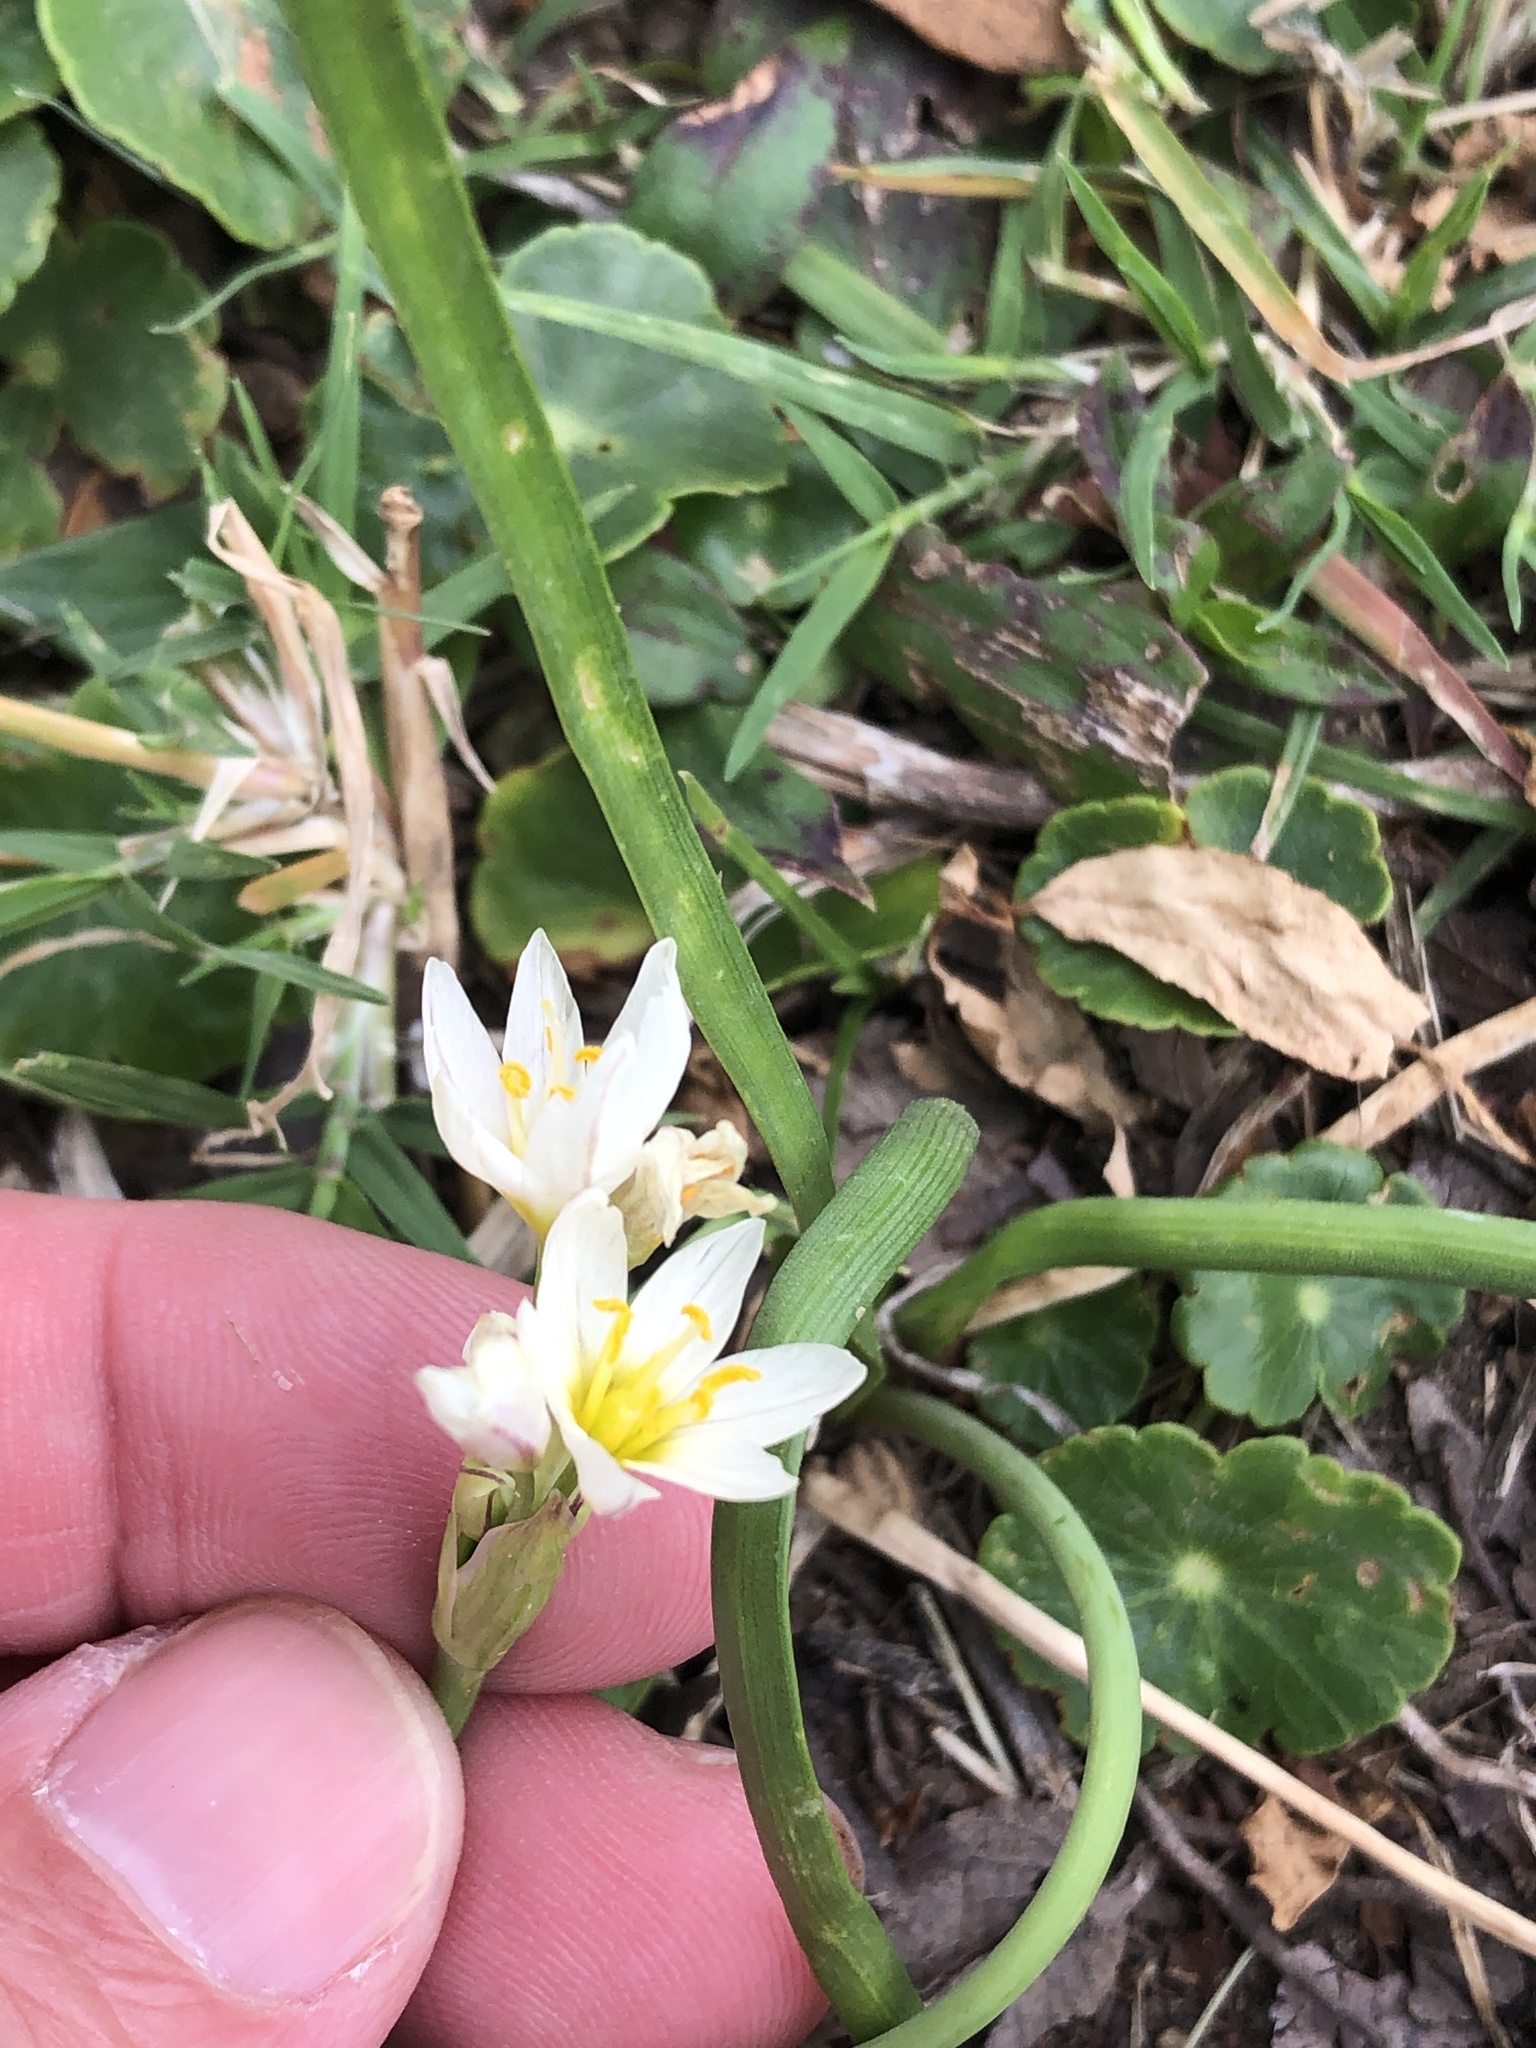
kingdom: Plantae
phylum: Tracheophyta
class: Liliopsida
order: Asparagales
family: Amaryllidaceae
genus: Nothoscordum
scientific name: Nothoscordum bivalve
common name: Crow-poison
